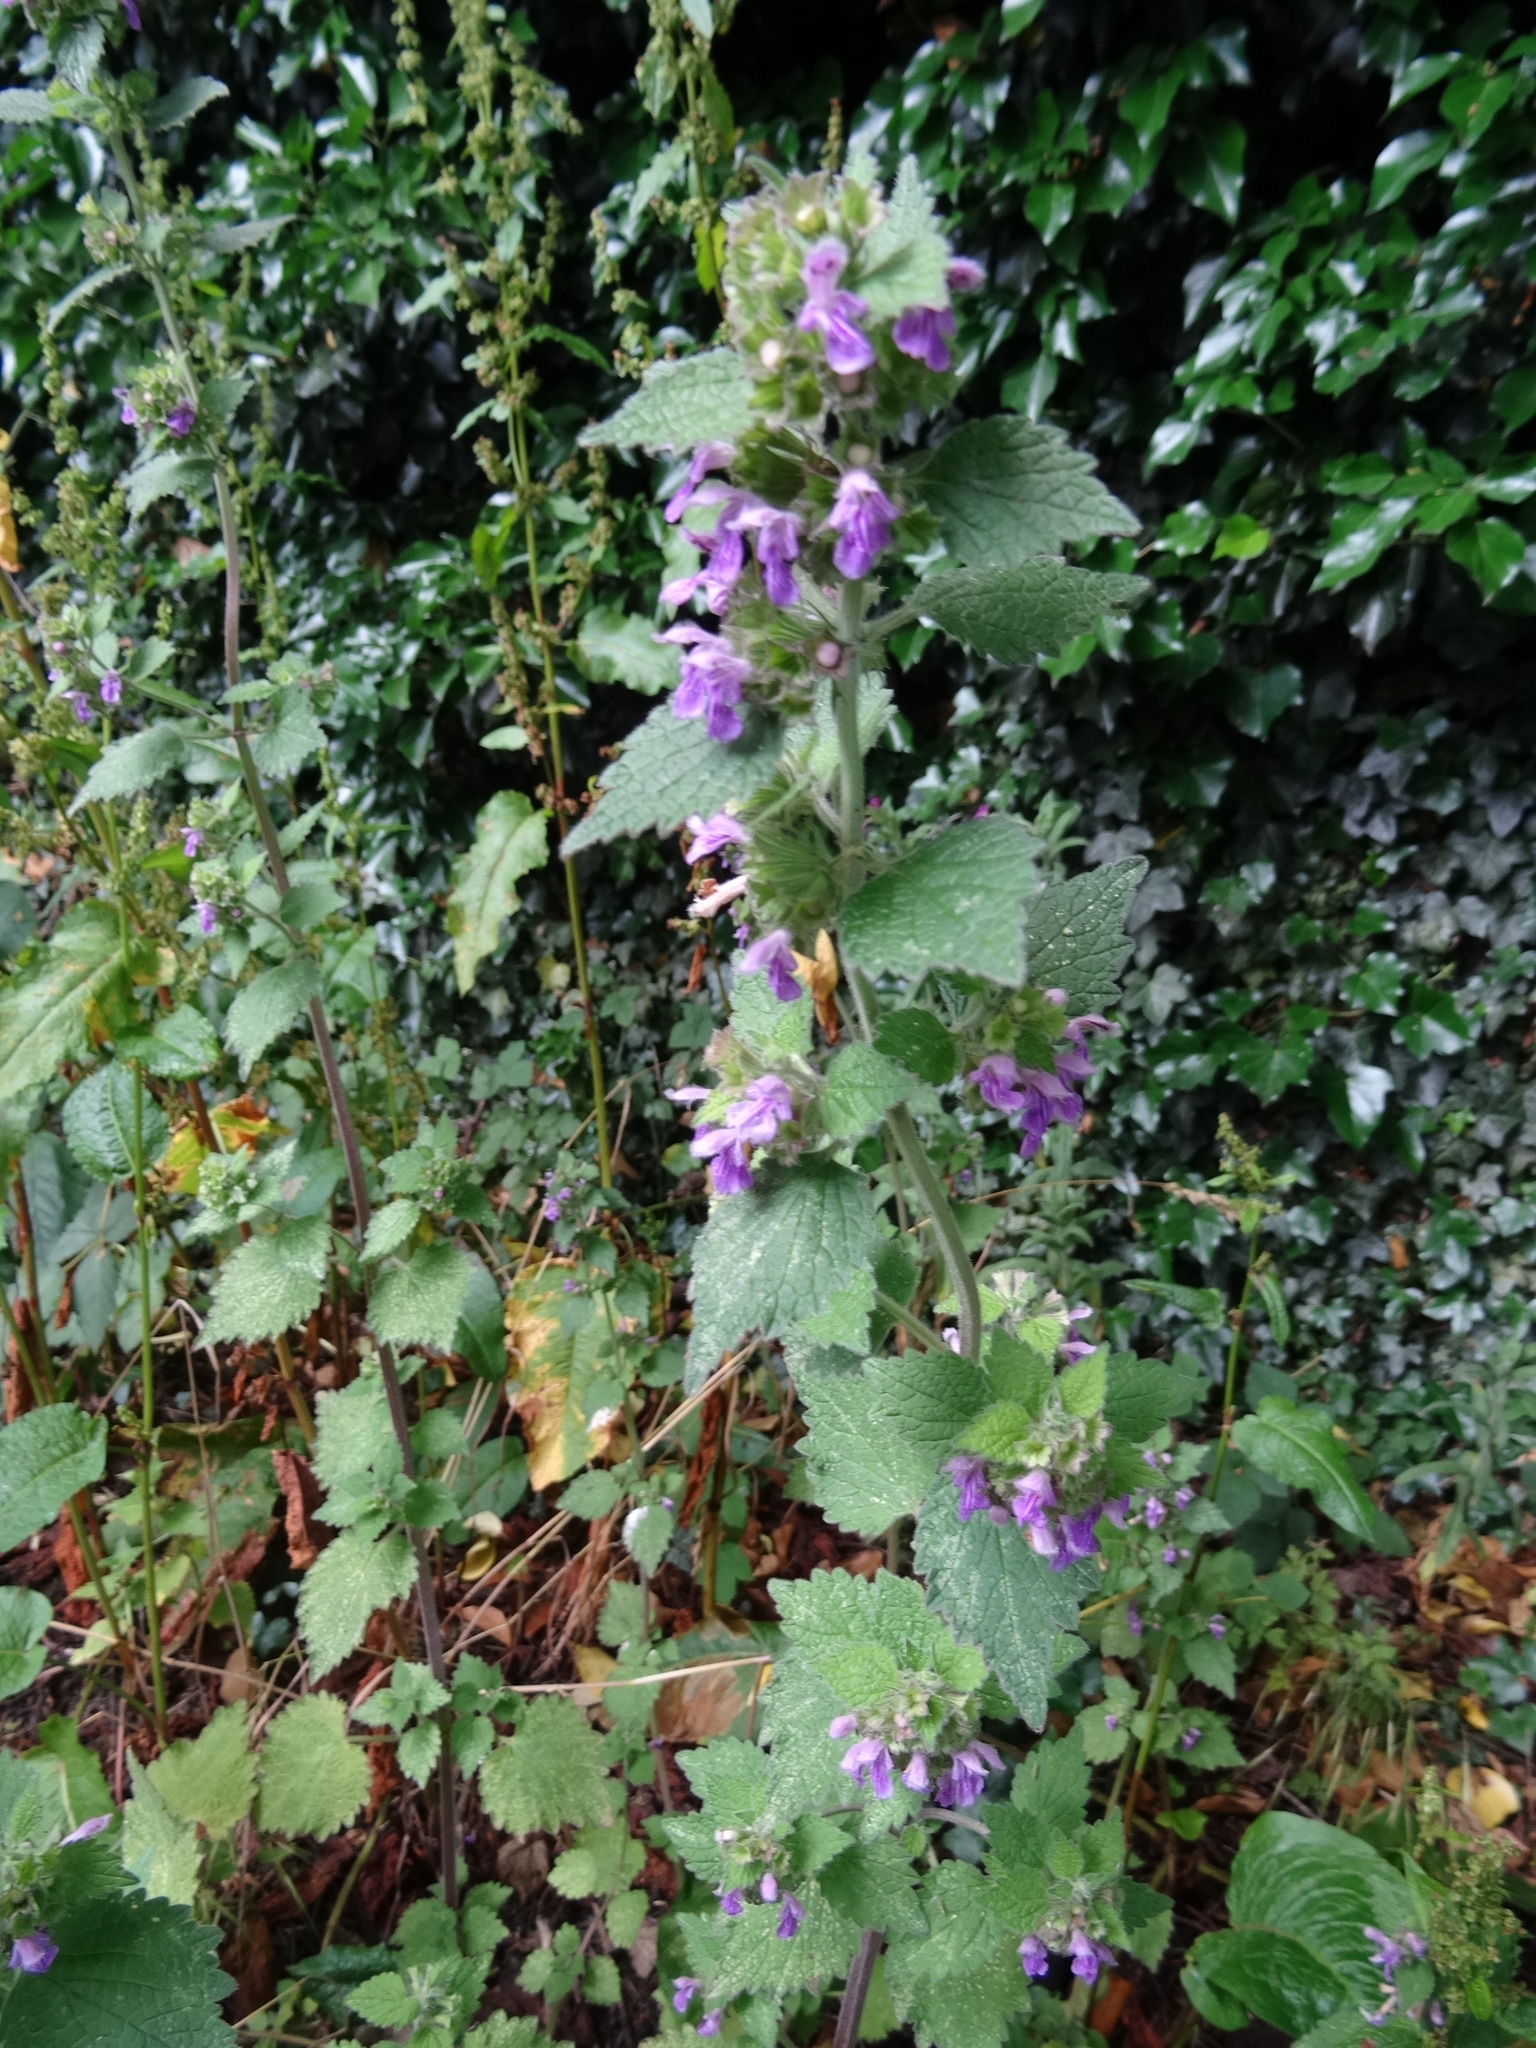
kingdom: Plantae
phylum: Tracheophyta
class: Magnoliopsida
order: Lamiales
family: Lamiaceae
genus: Ballota
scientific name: Ballota nigra
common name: Black horehound
